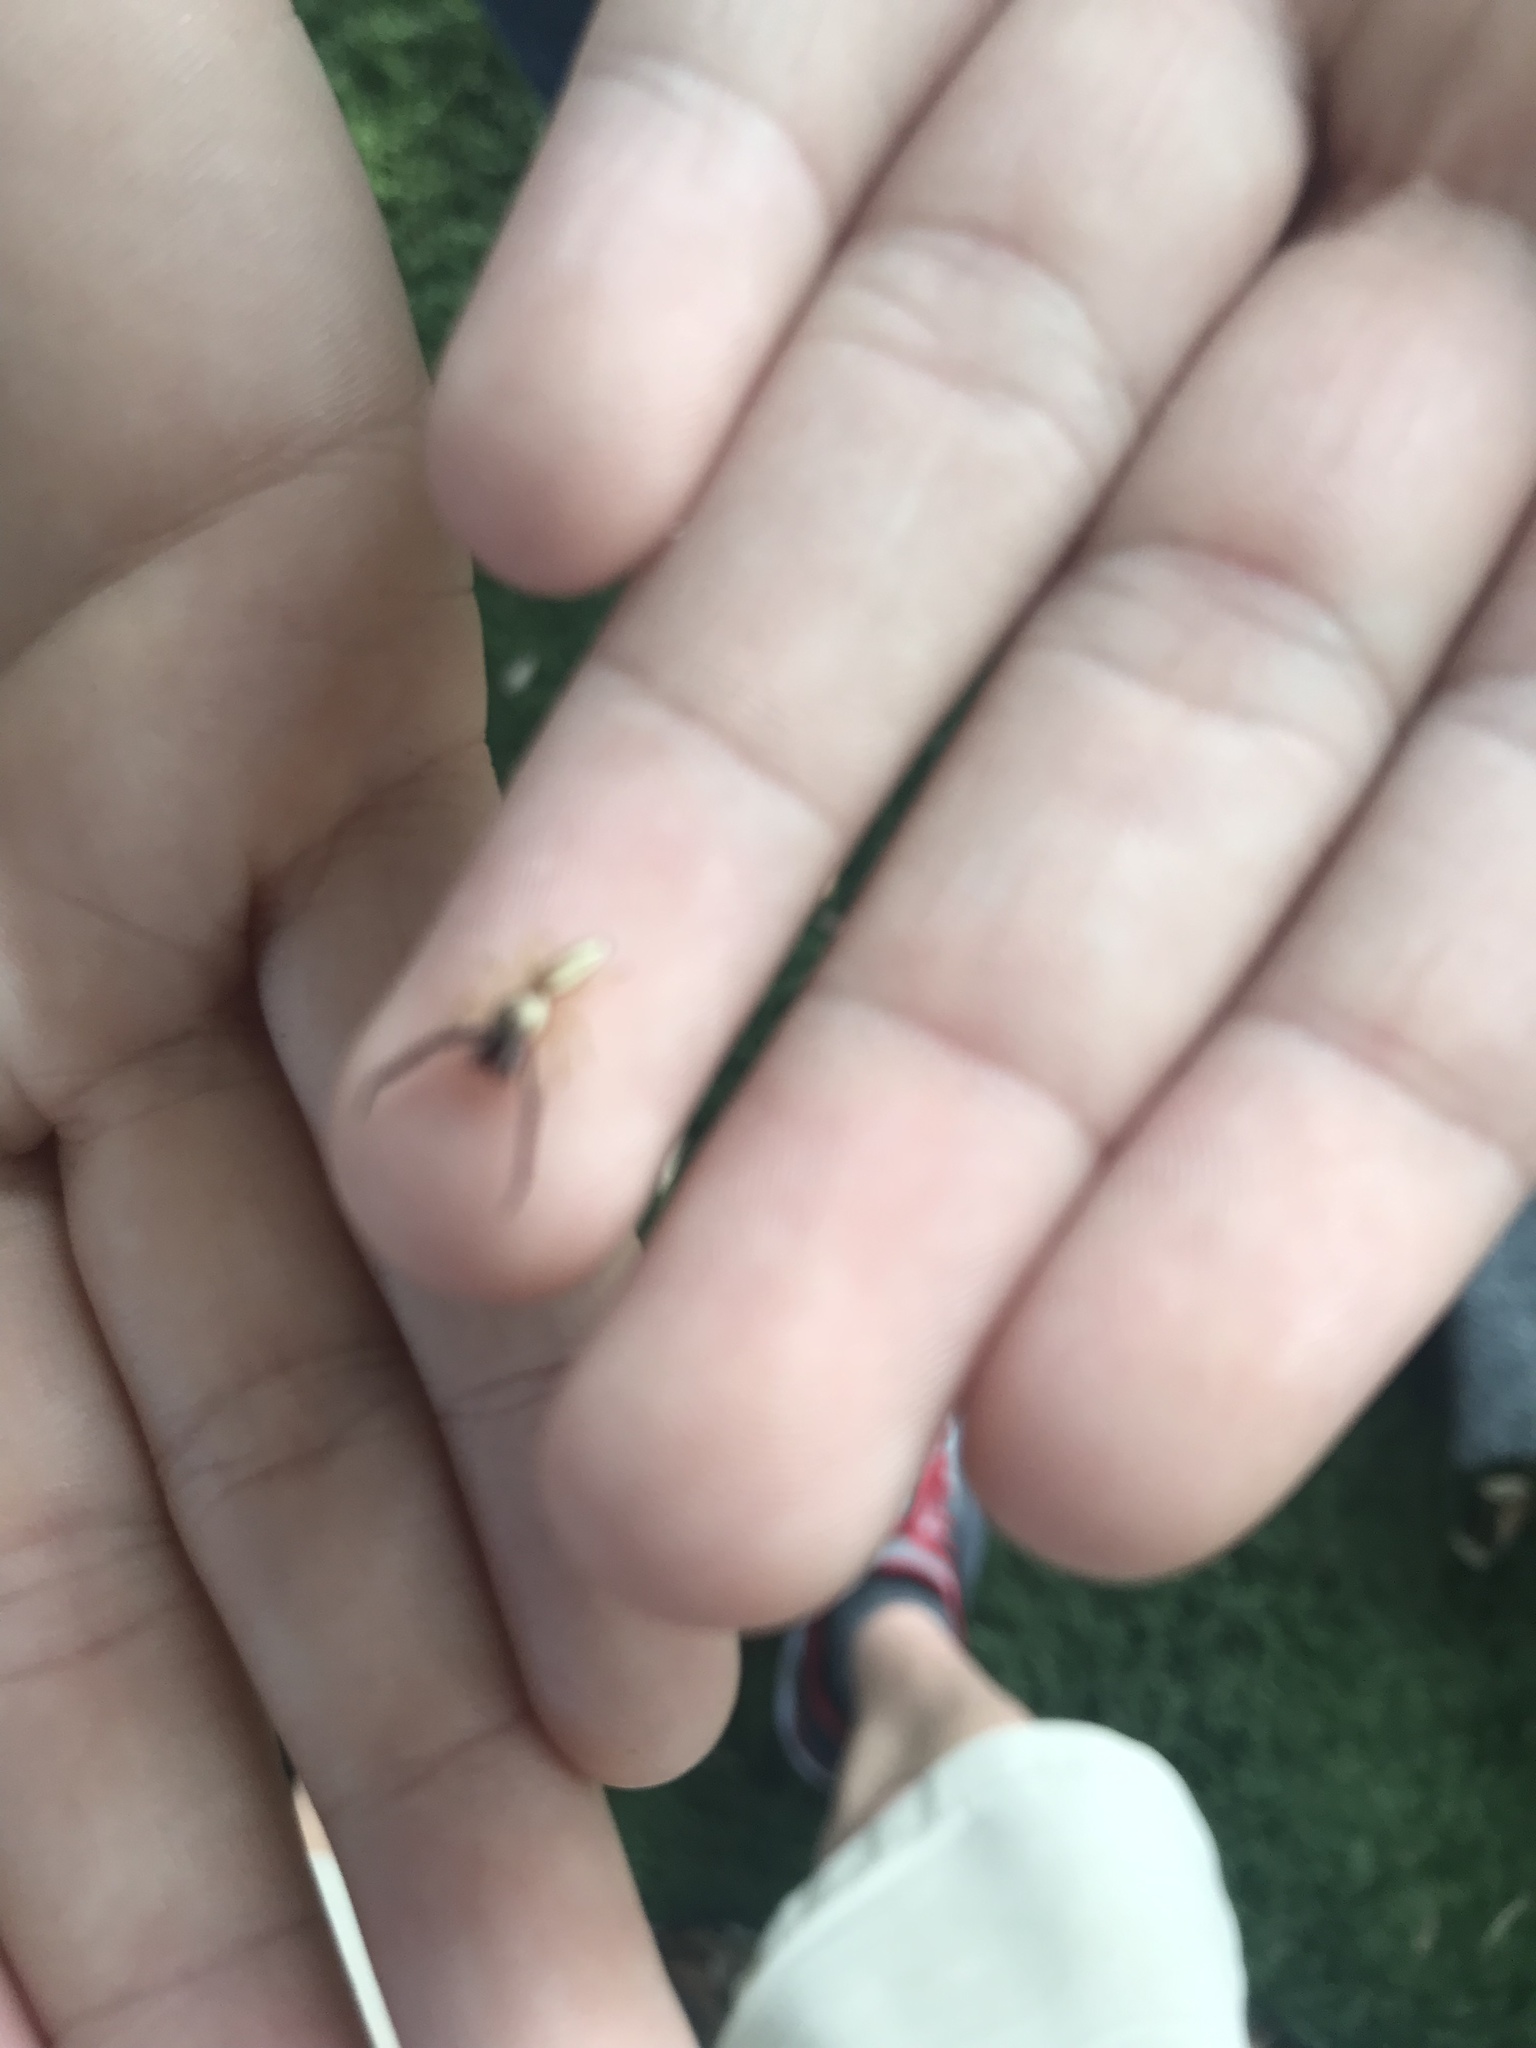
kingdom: Animalia
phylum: Arthropoda
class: Arachnida
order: Araneae
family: Salticidae
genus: Hentzia
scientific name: Hentzia palmarum
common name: Common hentz jumping spider
